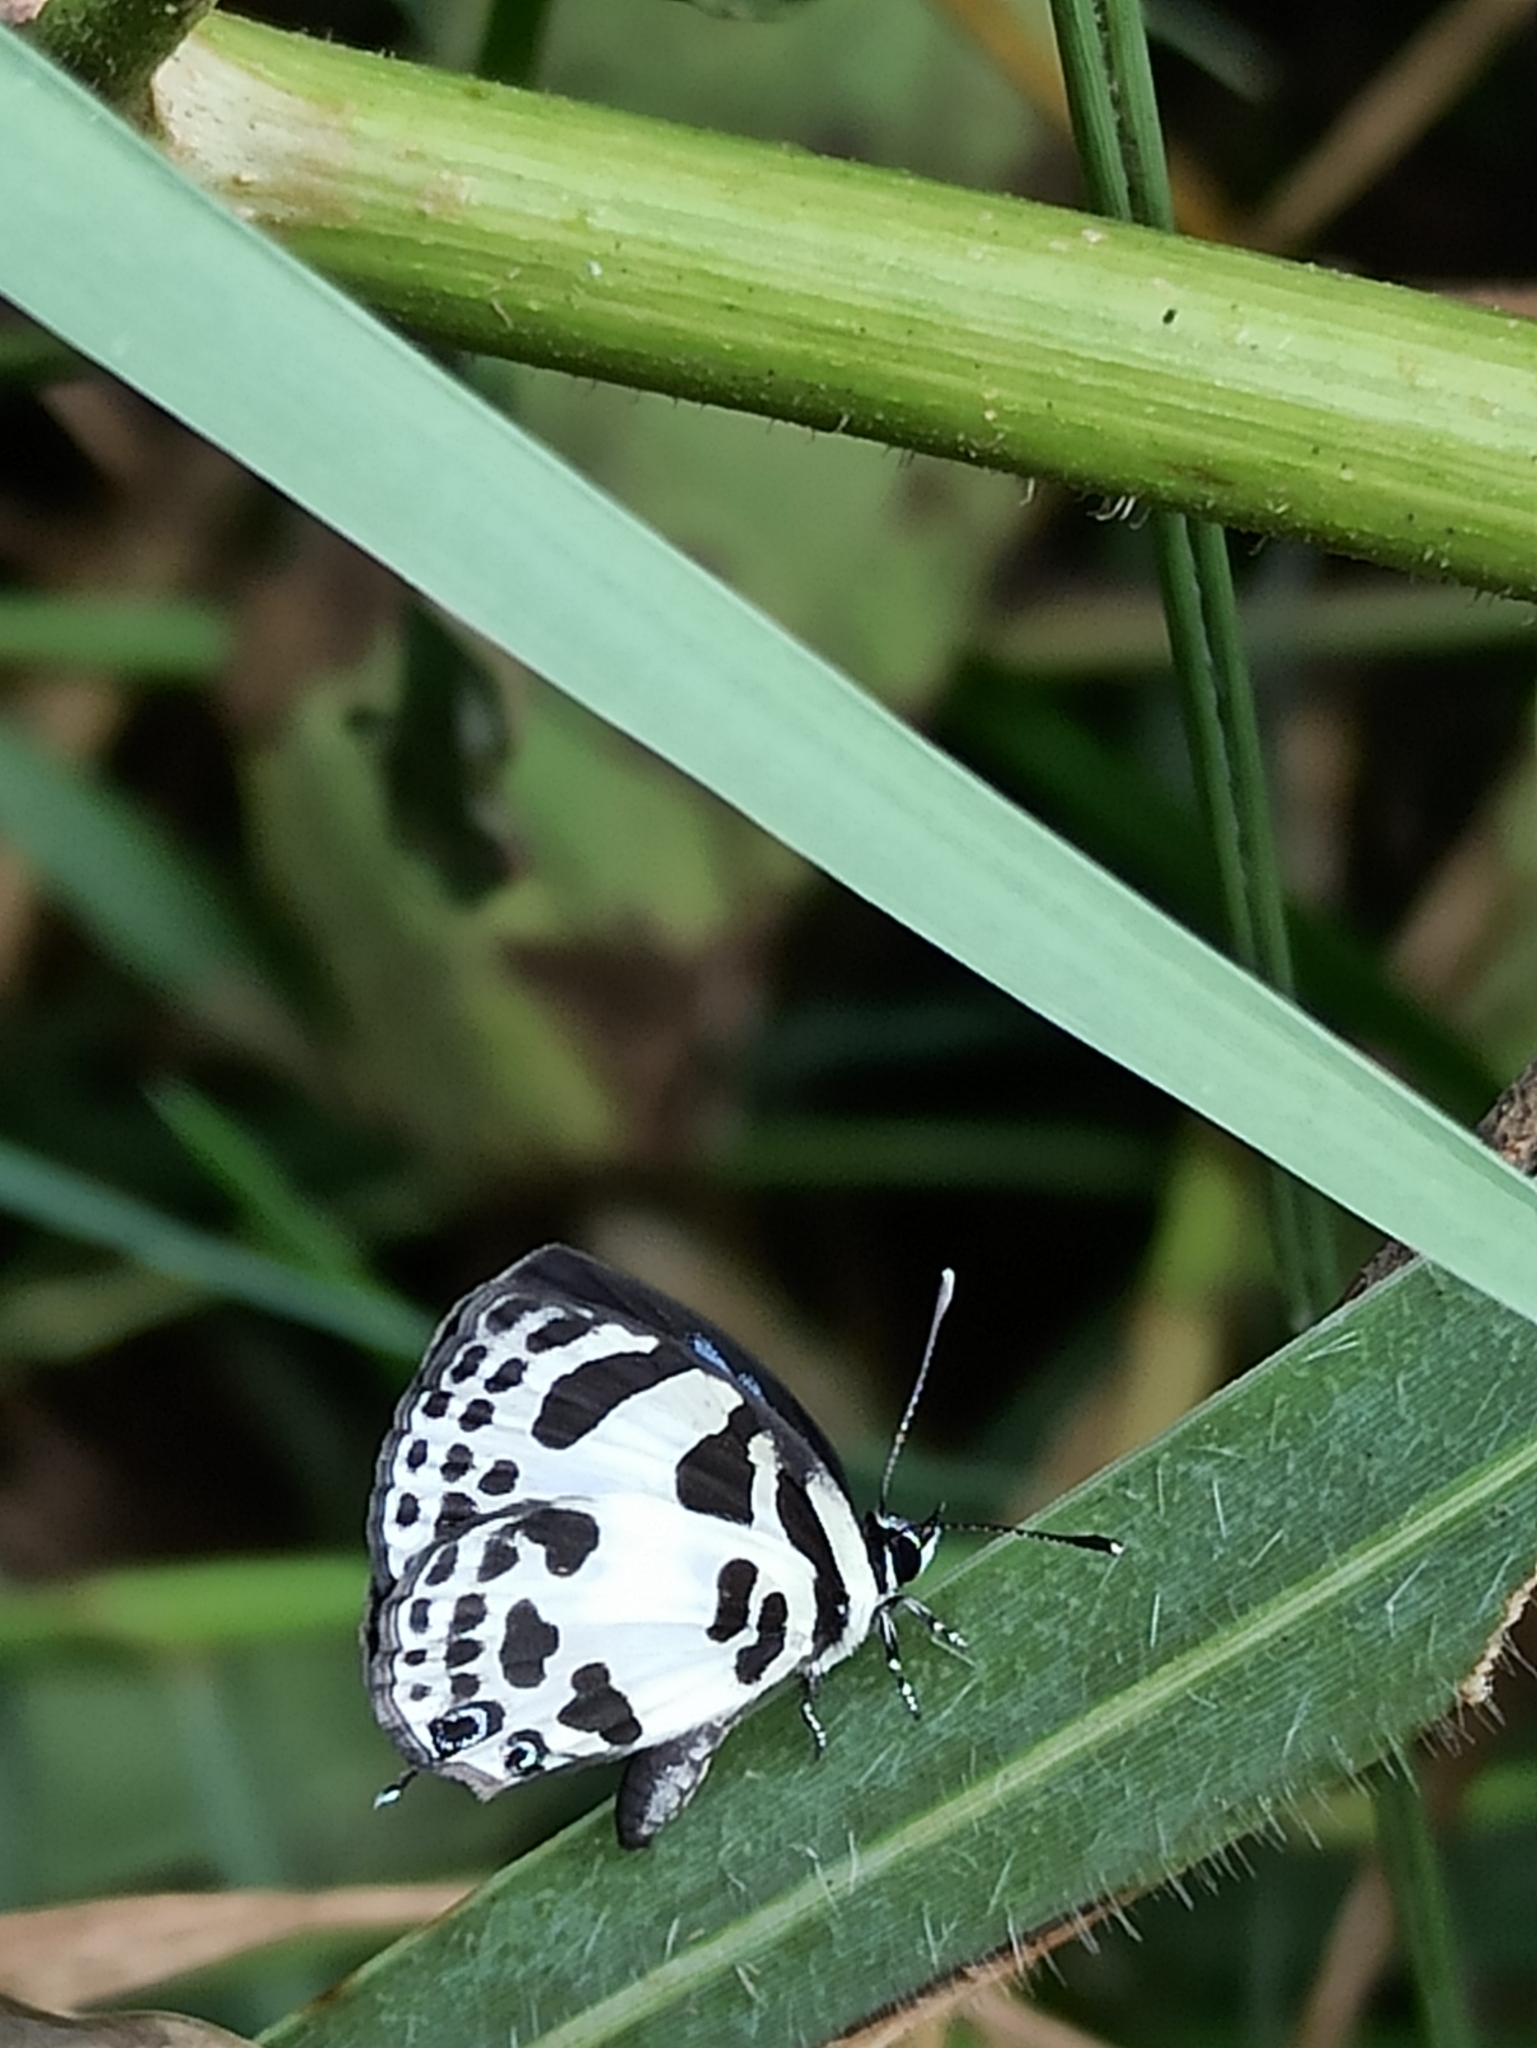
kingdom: Animalia
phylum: Arthropoda
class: Insecta
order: Lepidoptera
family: Lycaenidae
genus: Discolampa
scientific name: Discolampa ethion
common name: Banded blue pierrot
